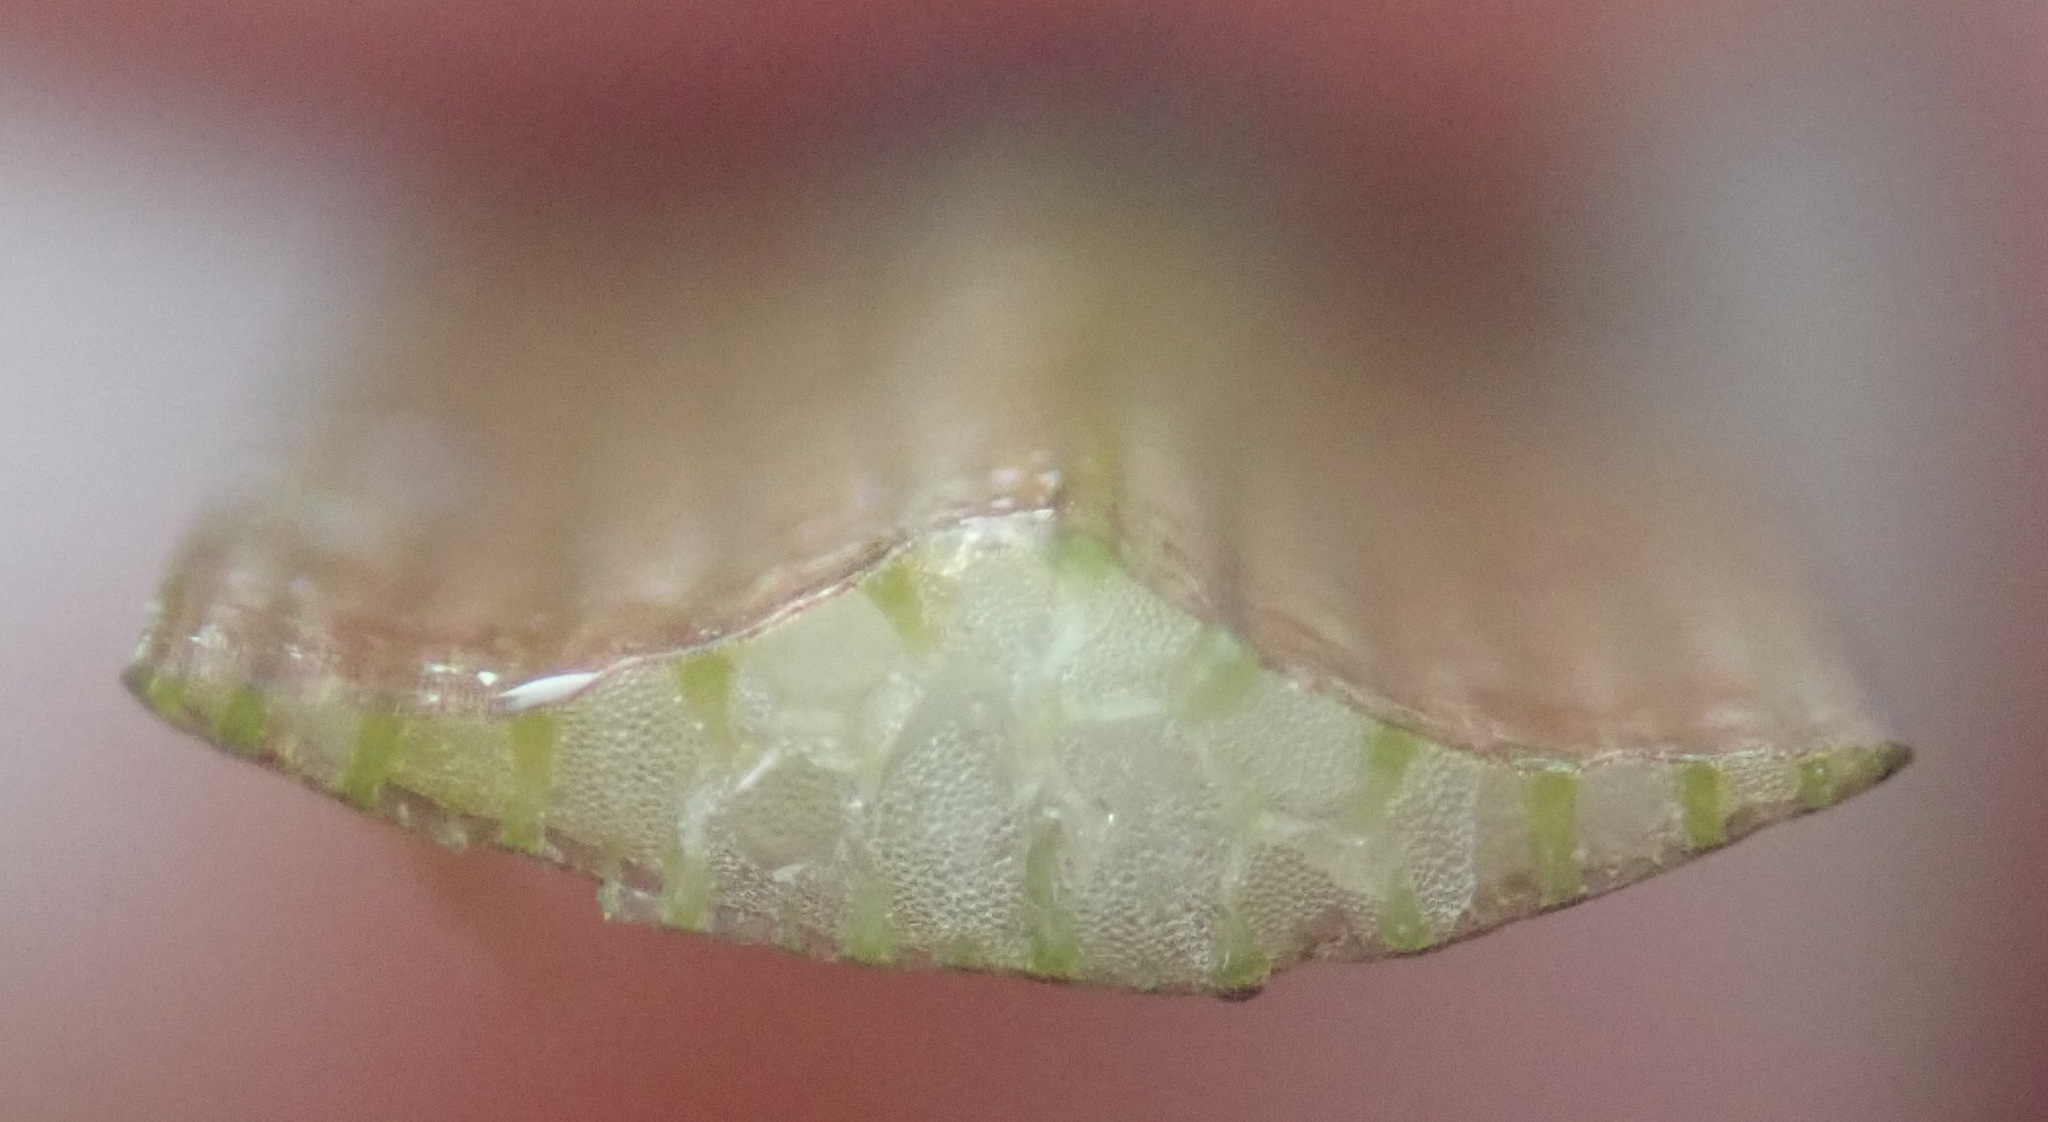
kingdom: Plantae
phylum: Tracheophyta
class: Liliopsida
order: Poales
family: Typhaceae
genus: Sparganium
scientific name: Sparganium erectum
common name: Branched bur-reed
